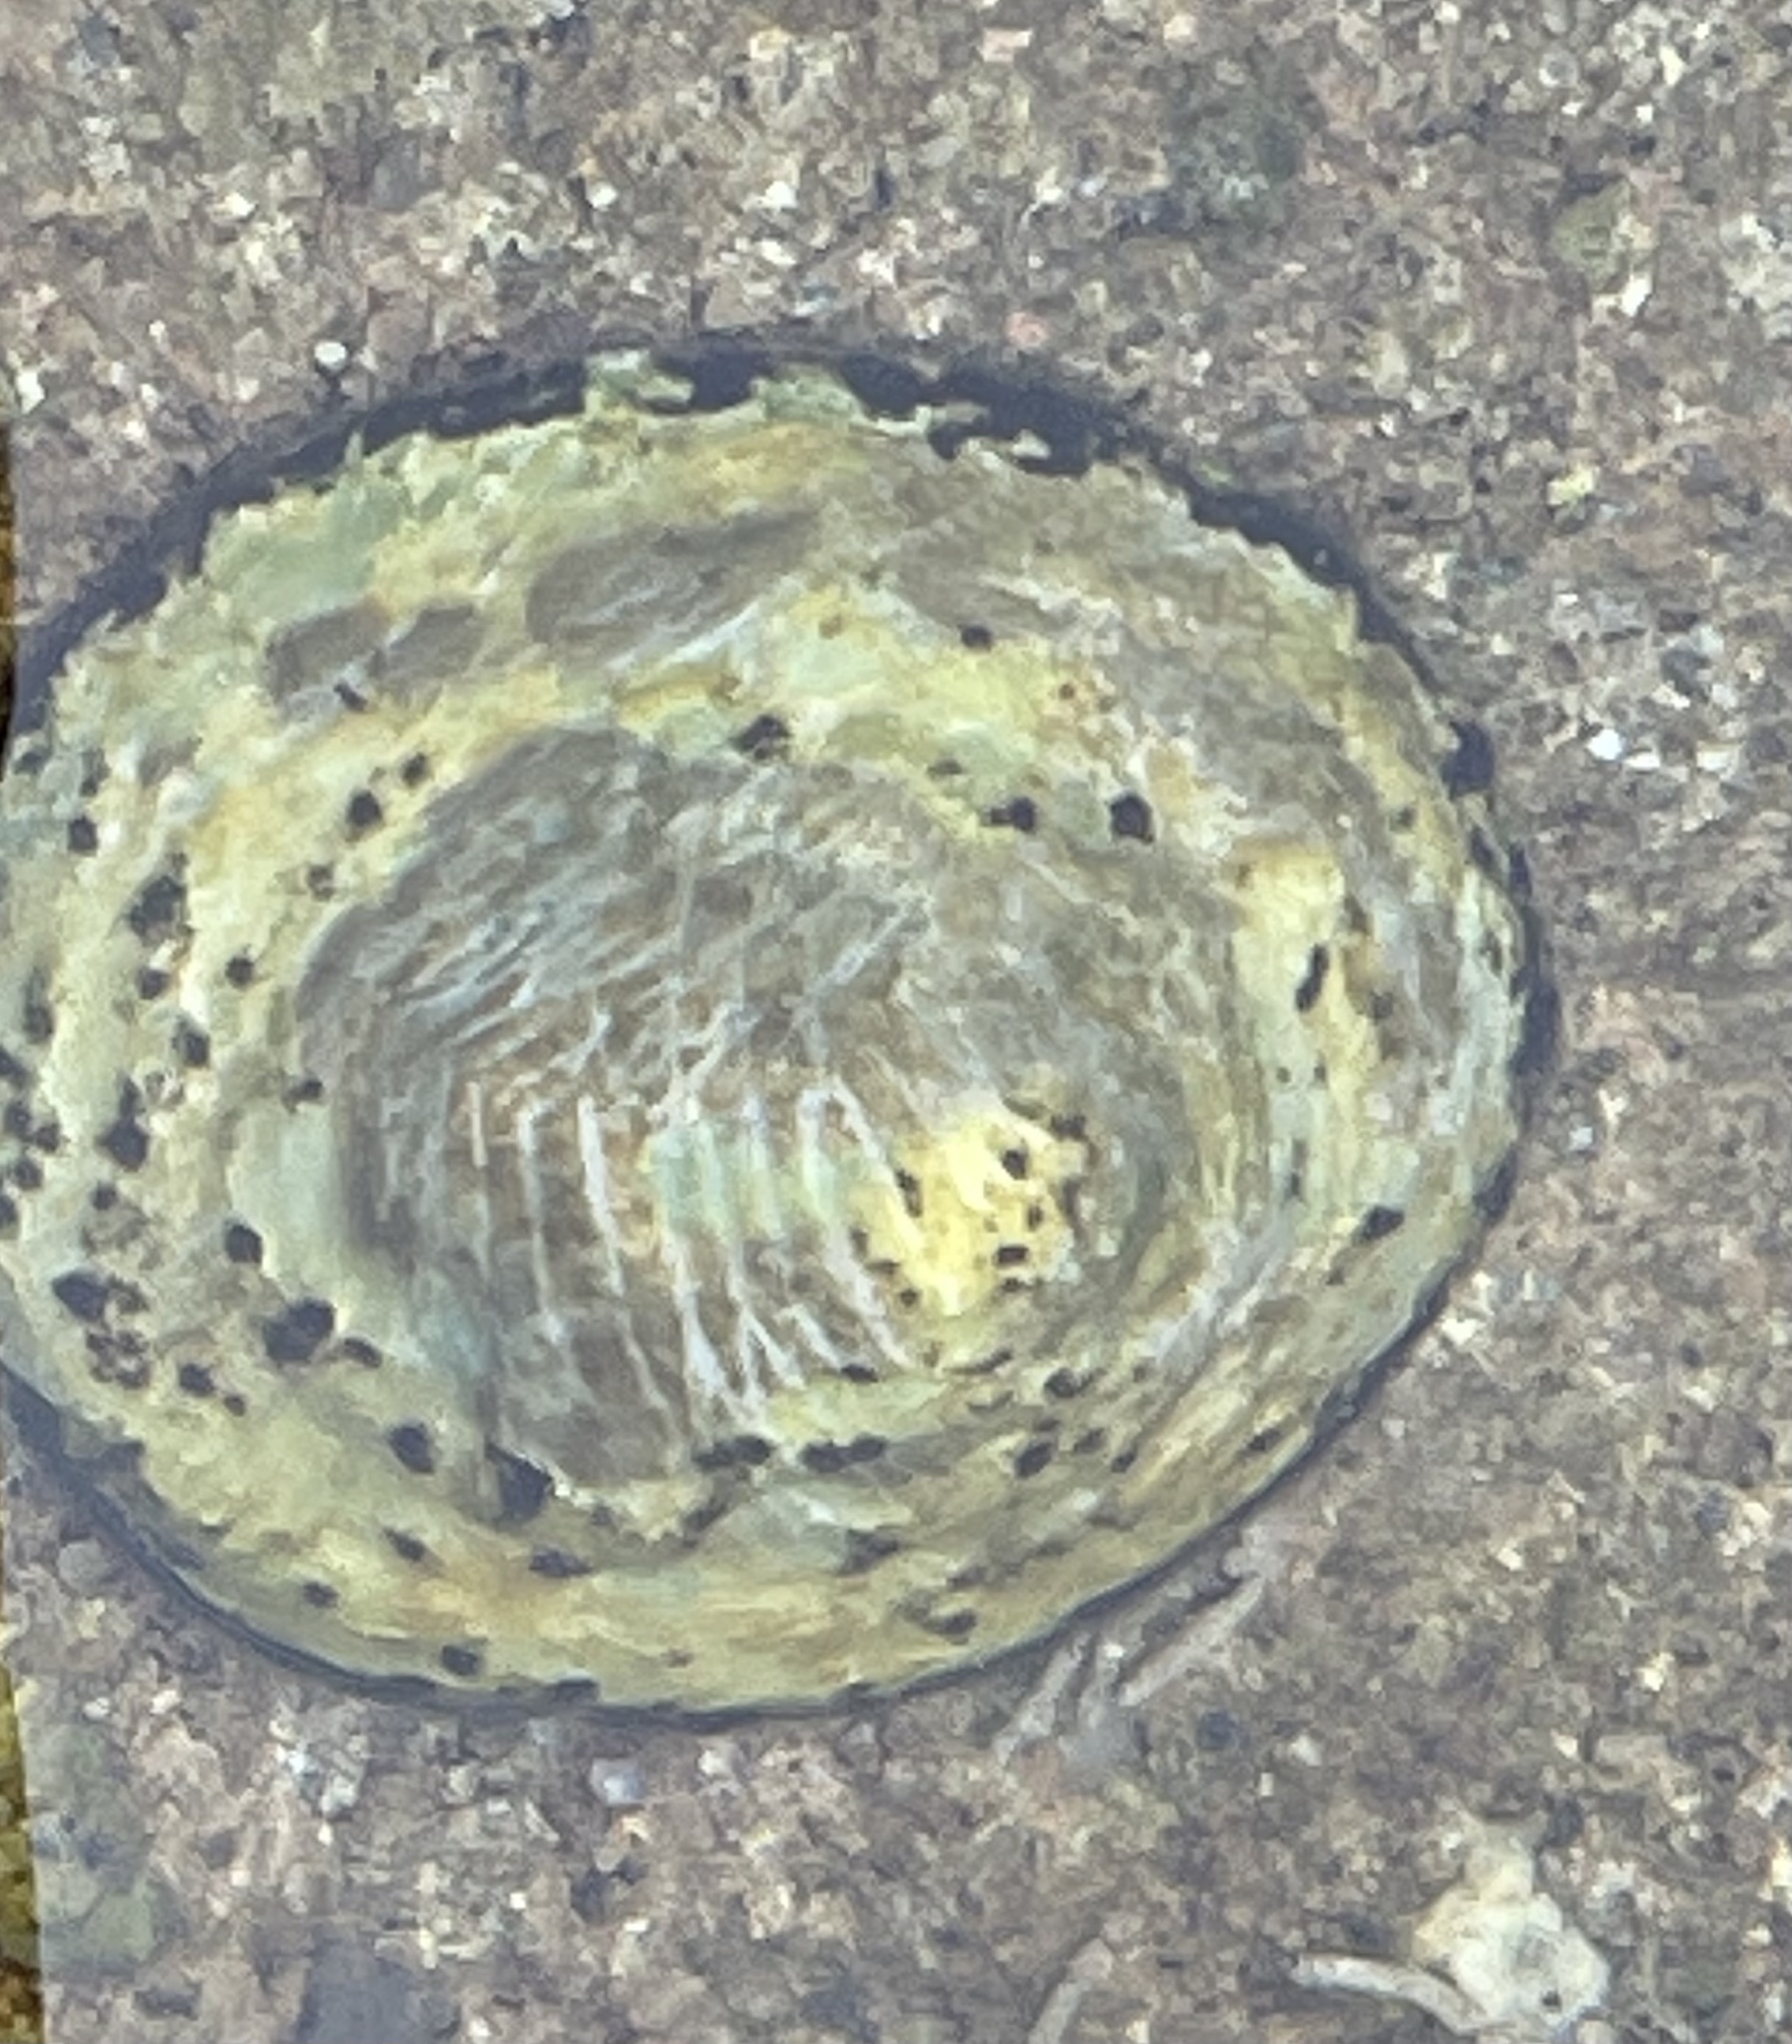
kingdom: Animalia
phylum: Mollusca
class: Gastropoda
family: Lottiidae
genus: Lottia
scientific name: Lottia limatula
